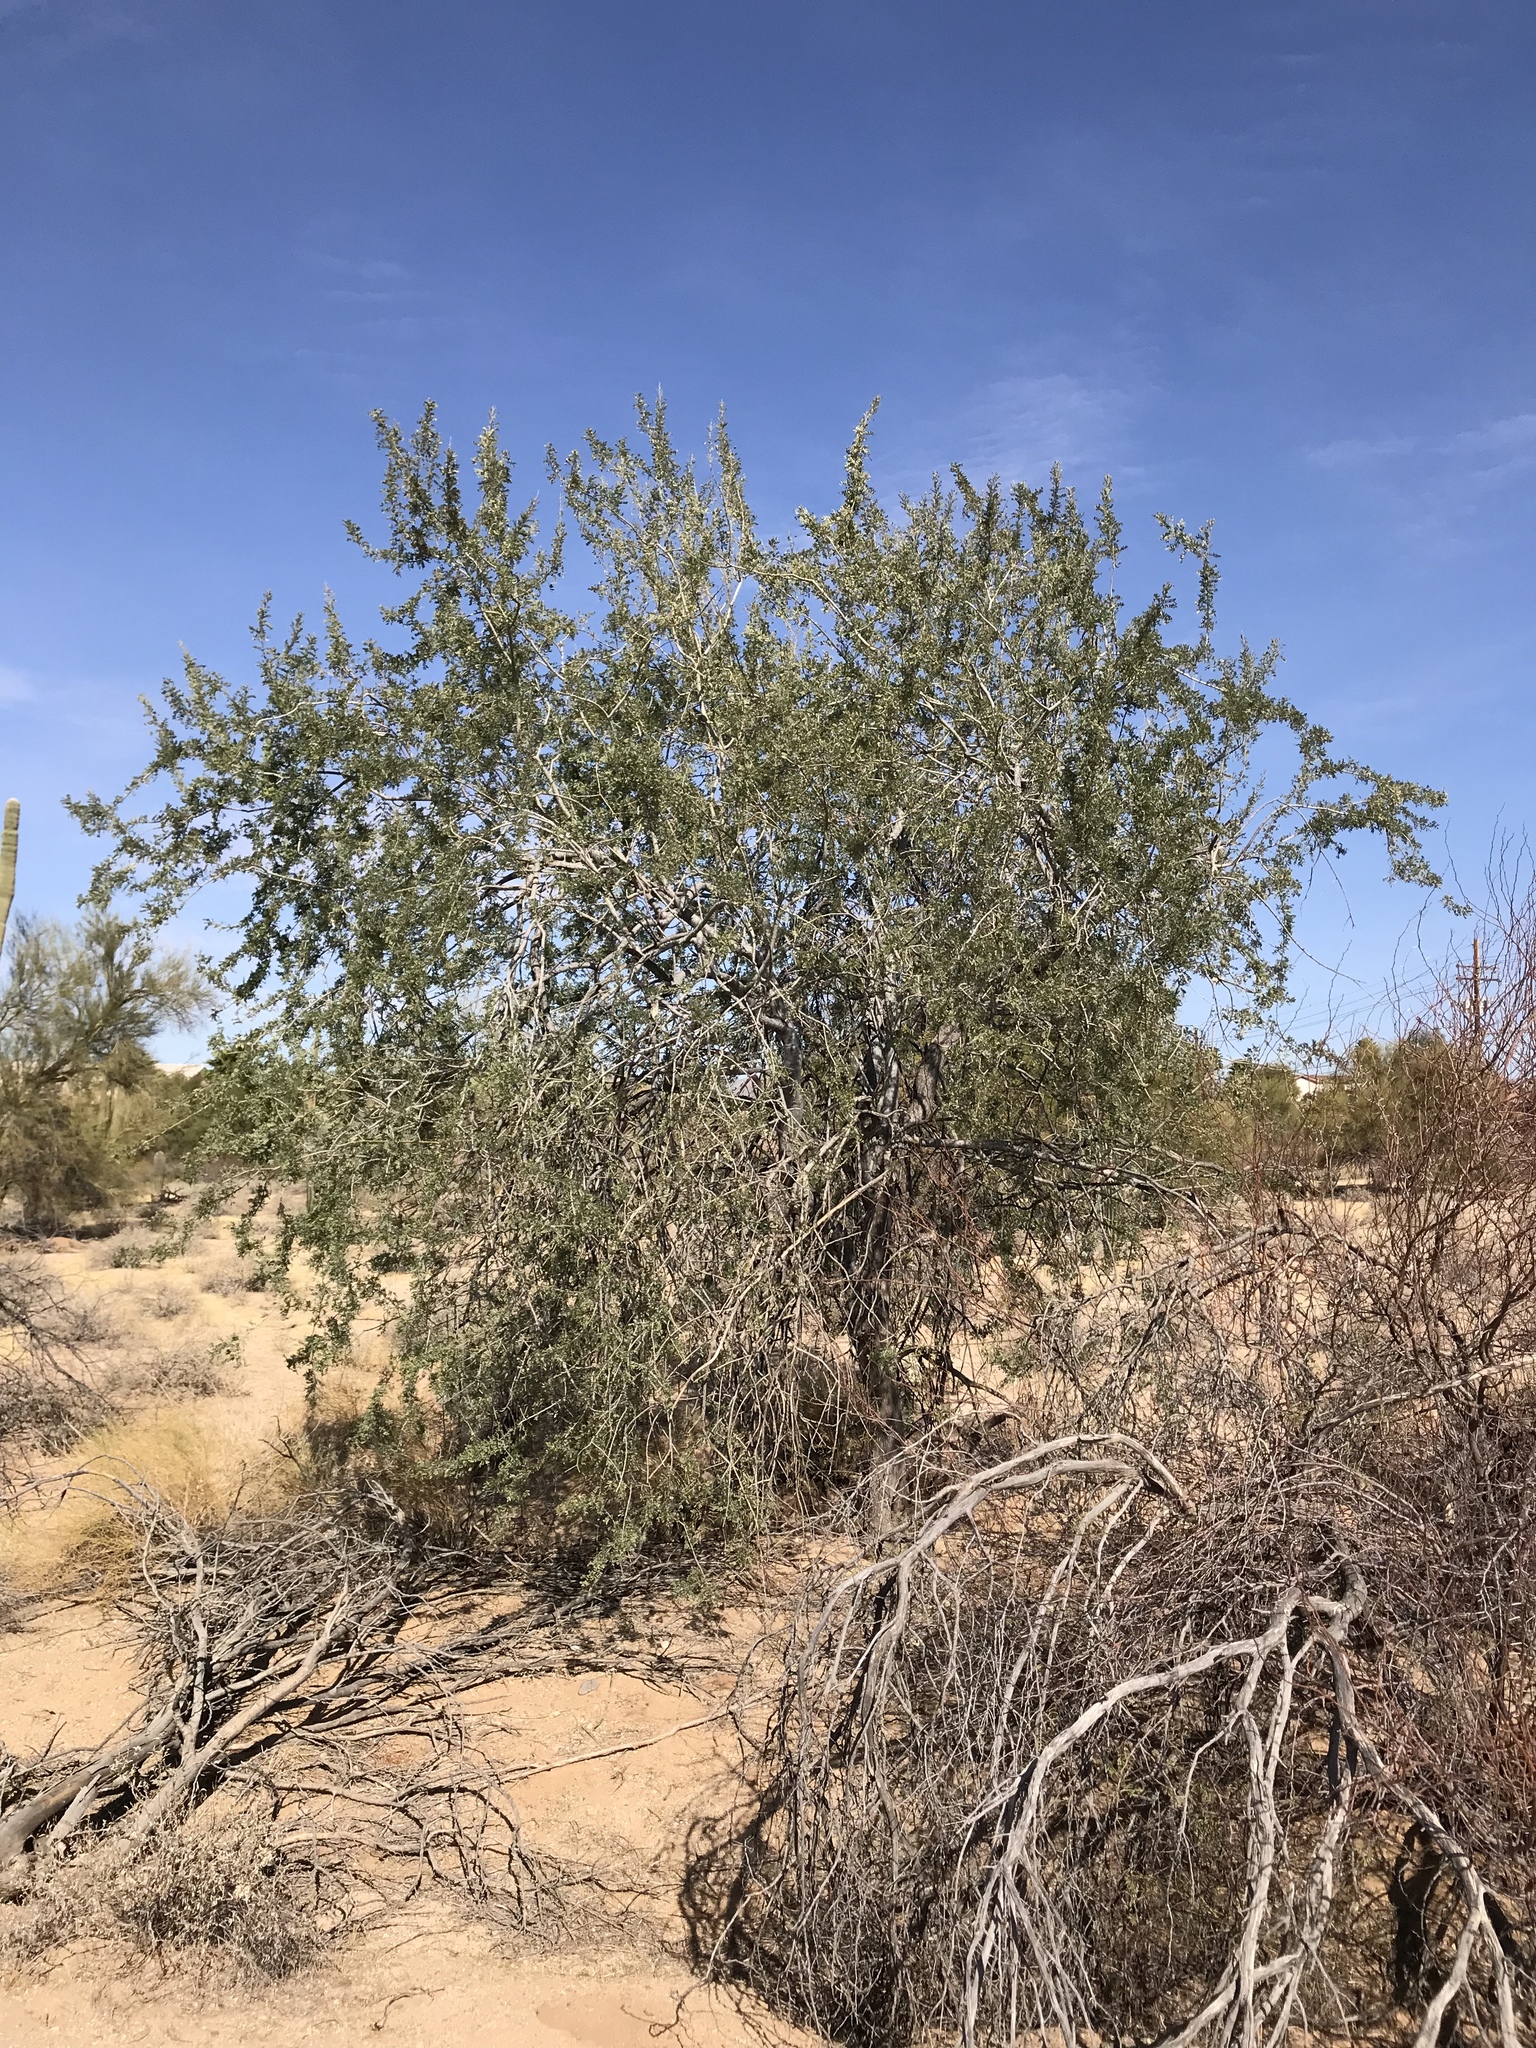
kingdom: Plantae
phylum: Tracheophyta
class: Magnoliopsida
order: Fabales
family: Fabaceae
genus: Olneya
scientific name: Olneya tesota
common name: Desert ironwood
